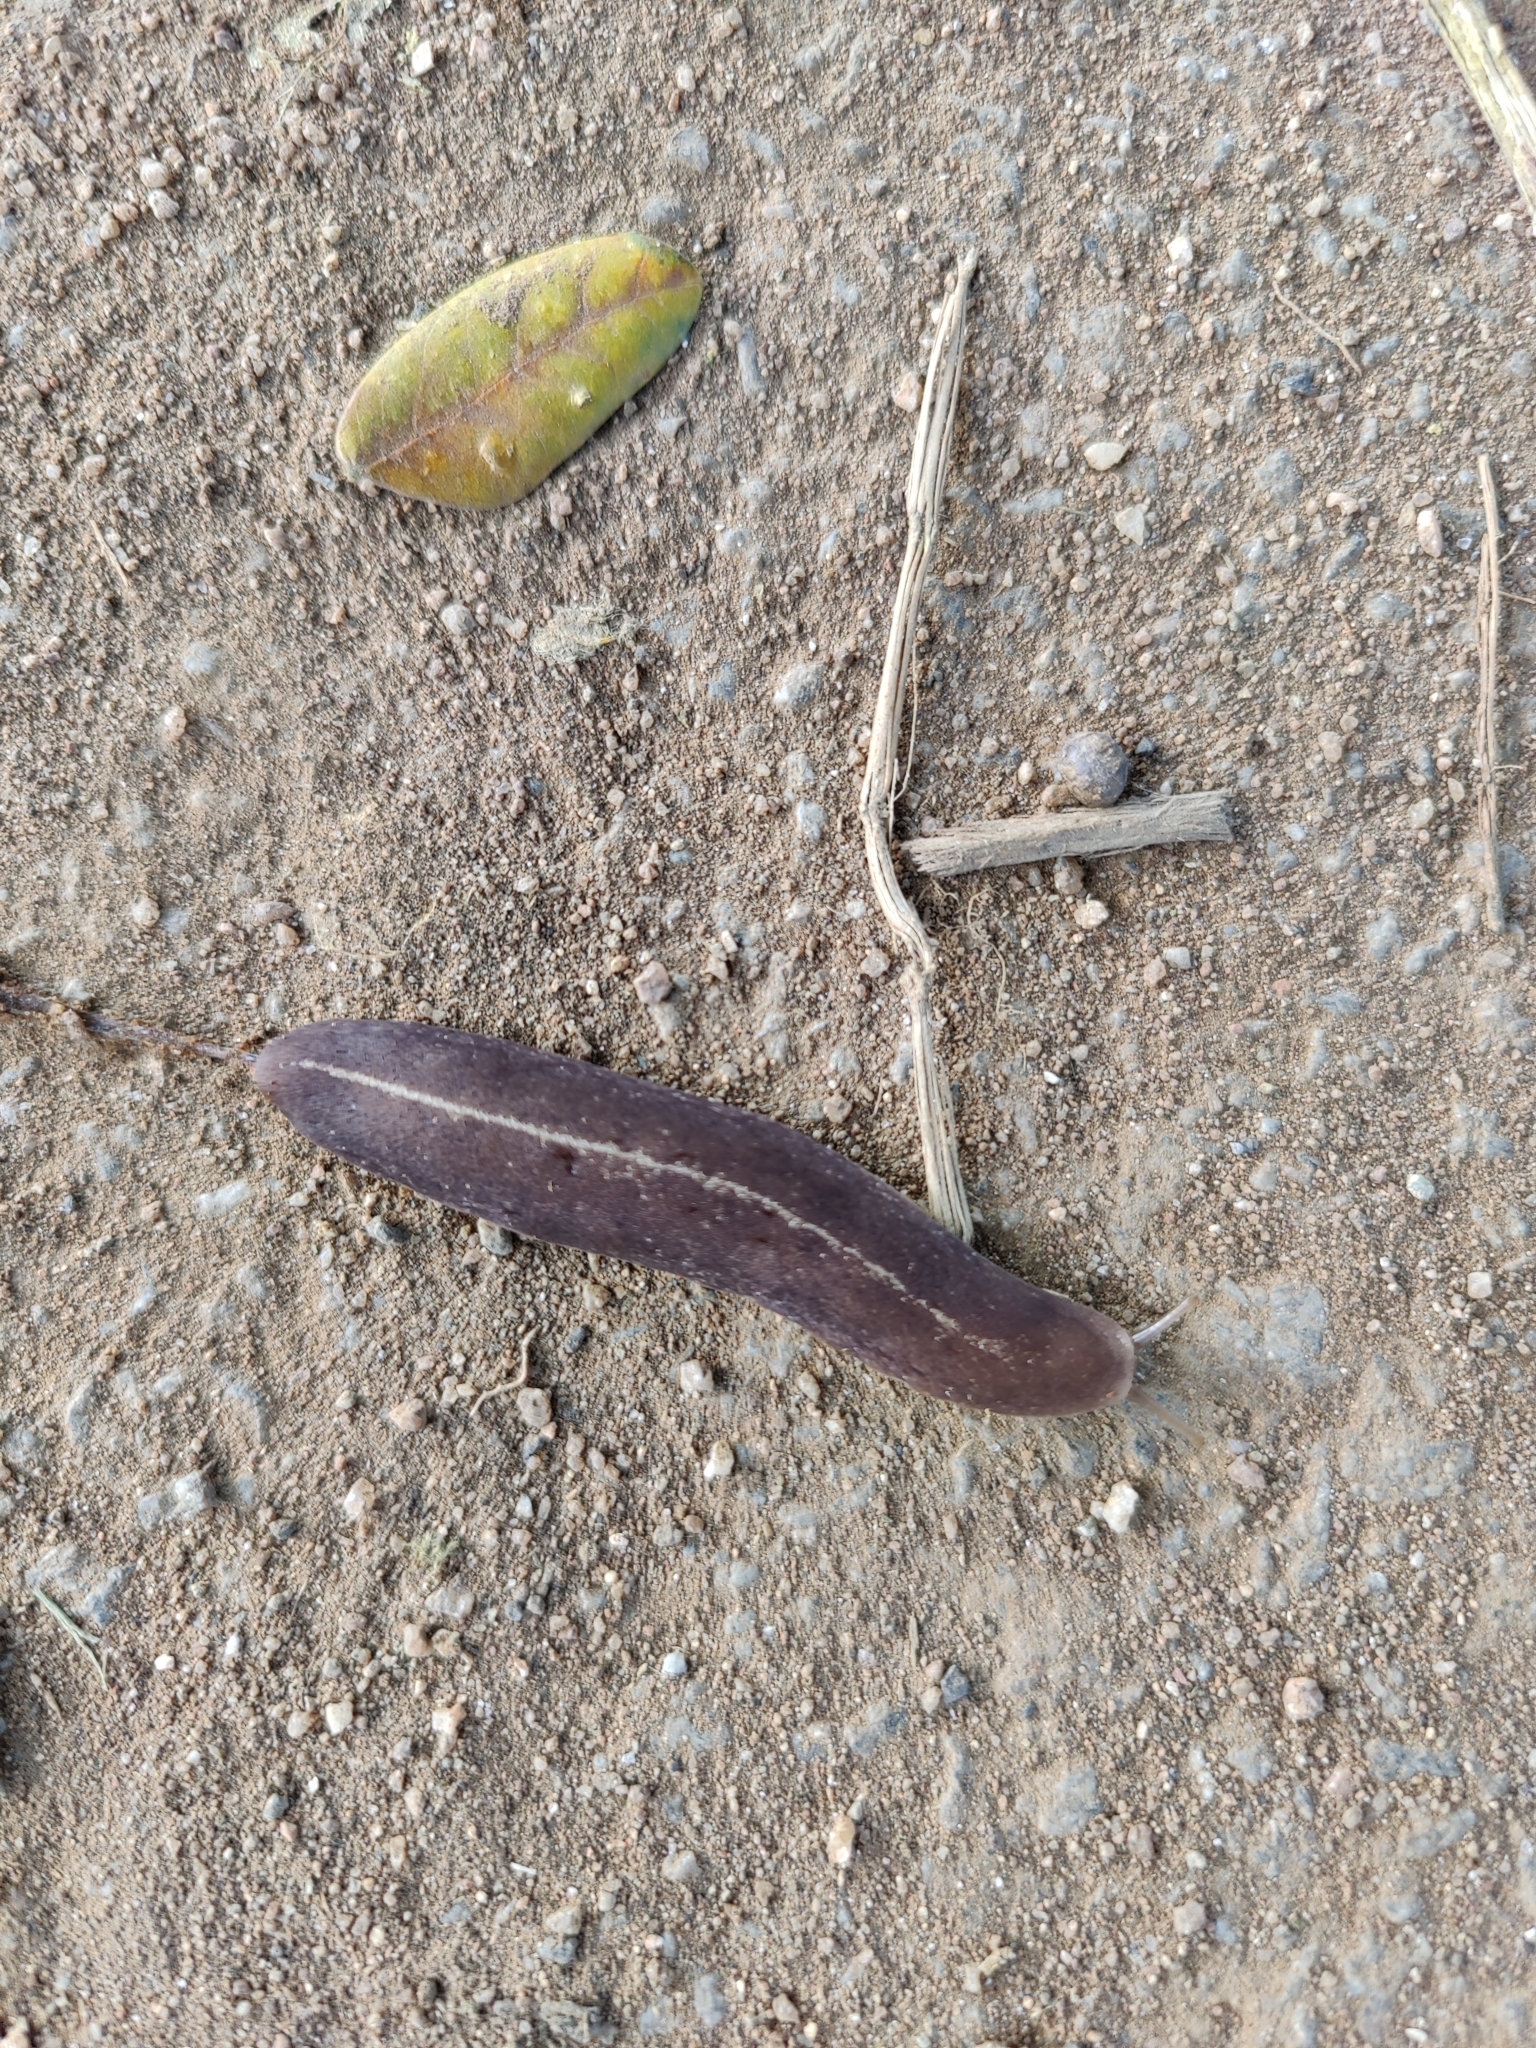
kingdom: Animalia
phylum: Mollusca
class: Gastropoda
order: Systellommatophora
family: Veronicellidae
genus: Laevicaulis
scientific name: Laevicaulis alte
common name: Tropical leatherleaf
